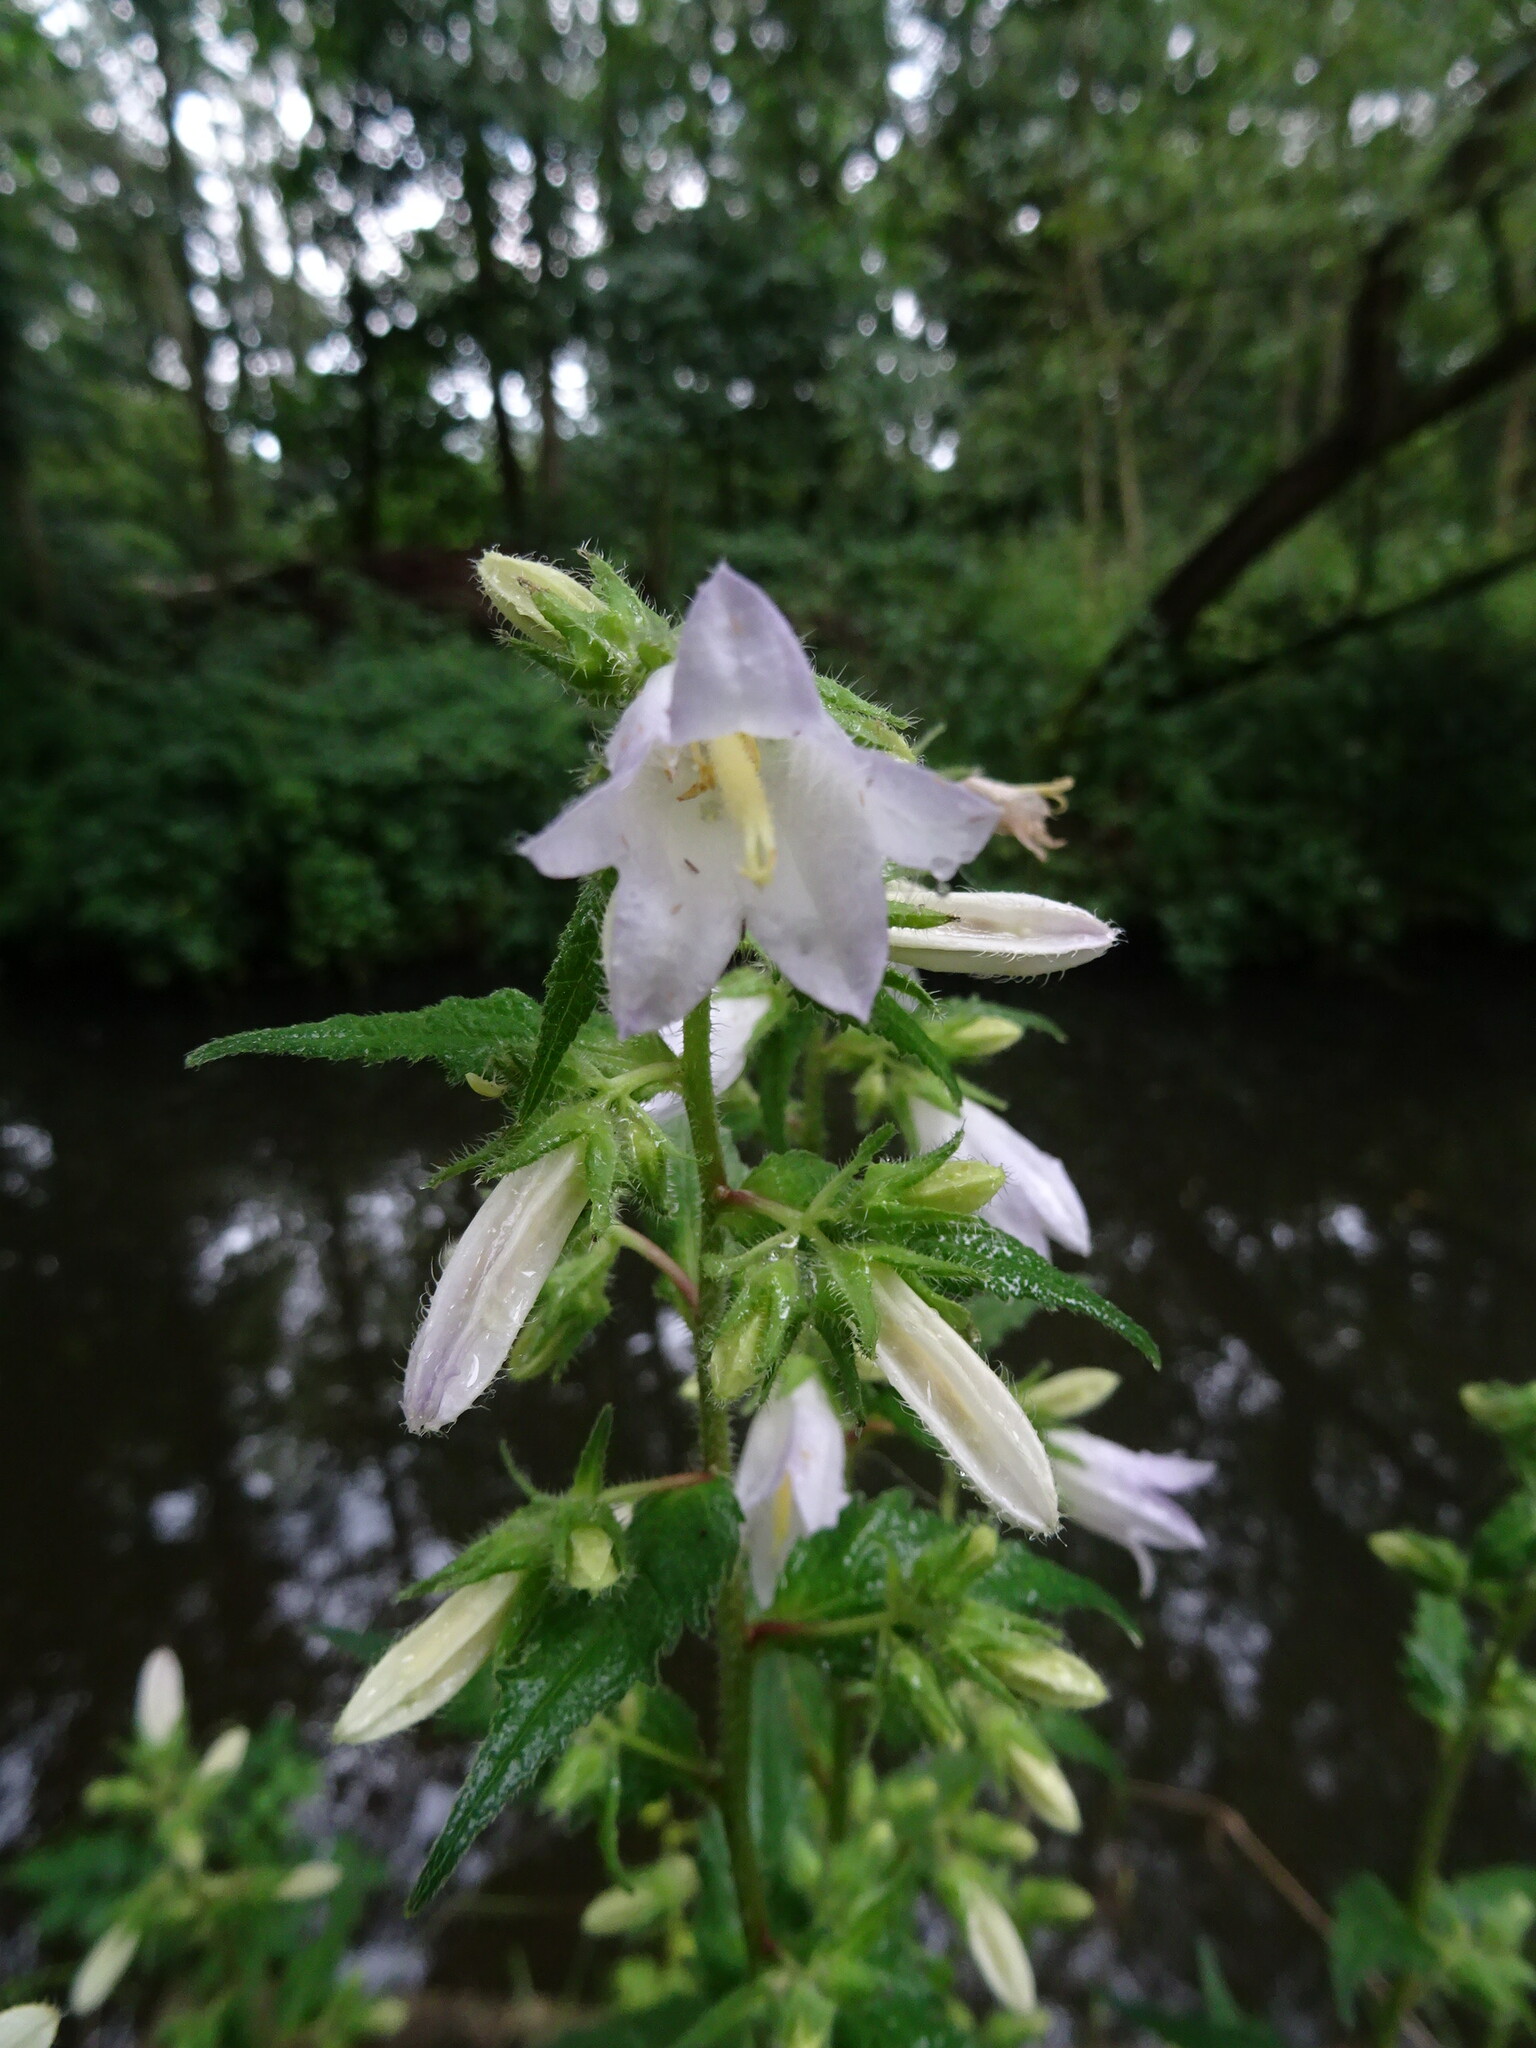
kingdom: Plantae
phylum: Tracheophyta
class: Magnoliopsida
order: Asterales
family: Campanulaceae
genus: Campanula
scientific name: Campanula trachelium
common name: Nettle-leaved bellflower
